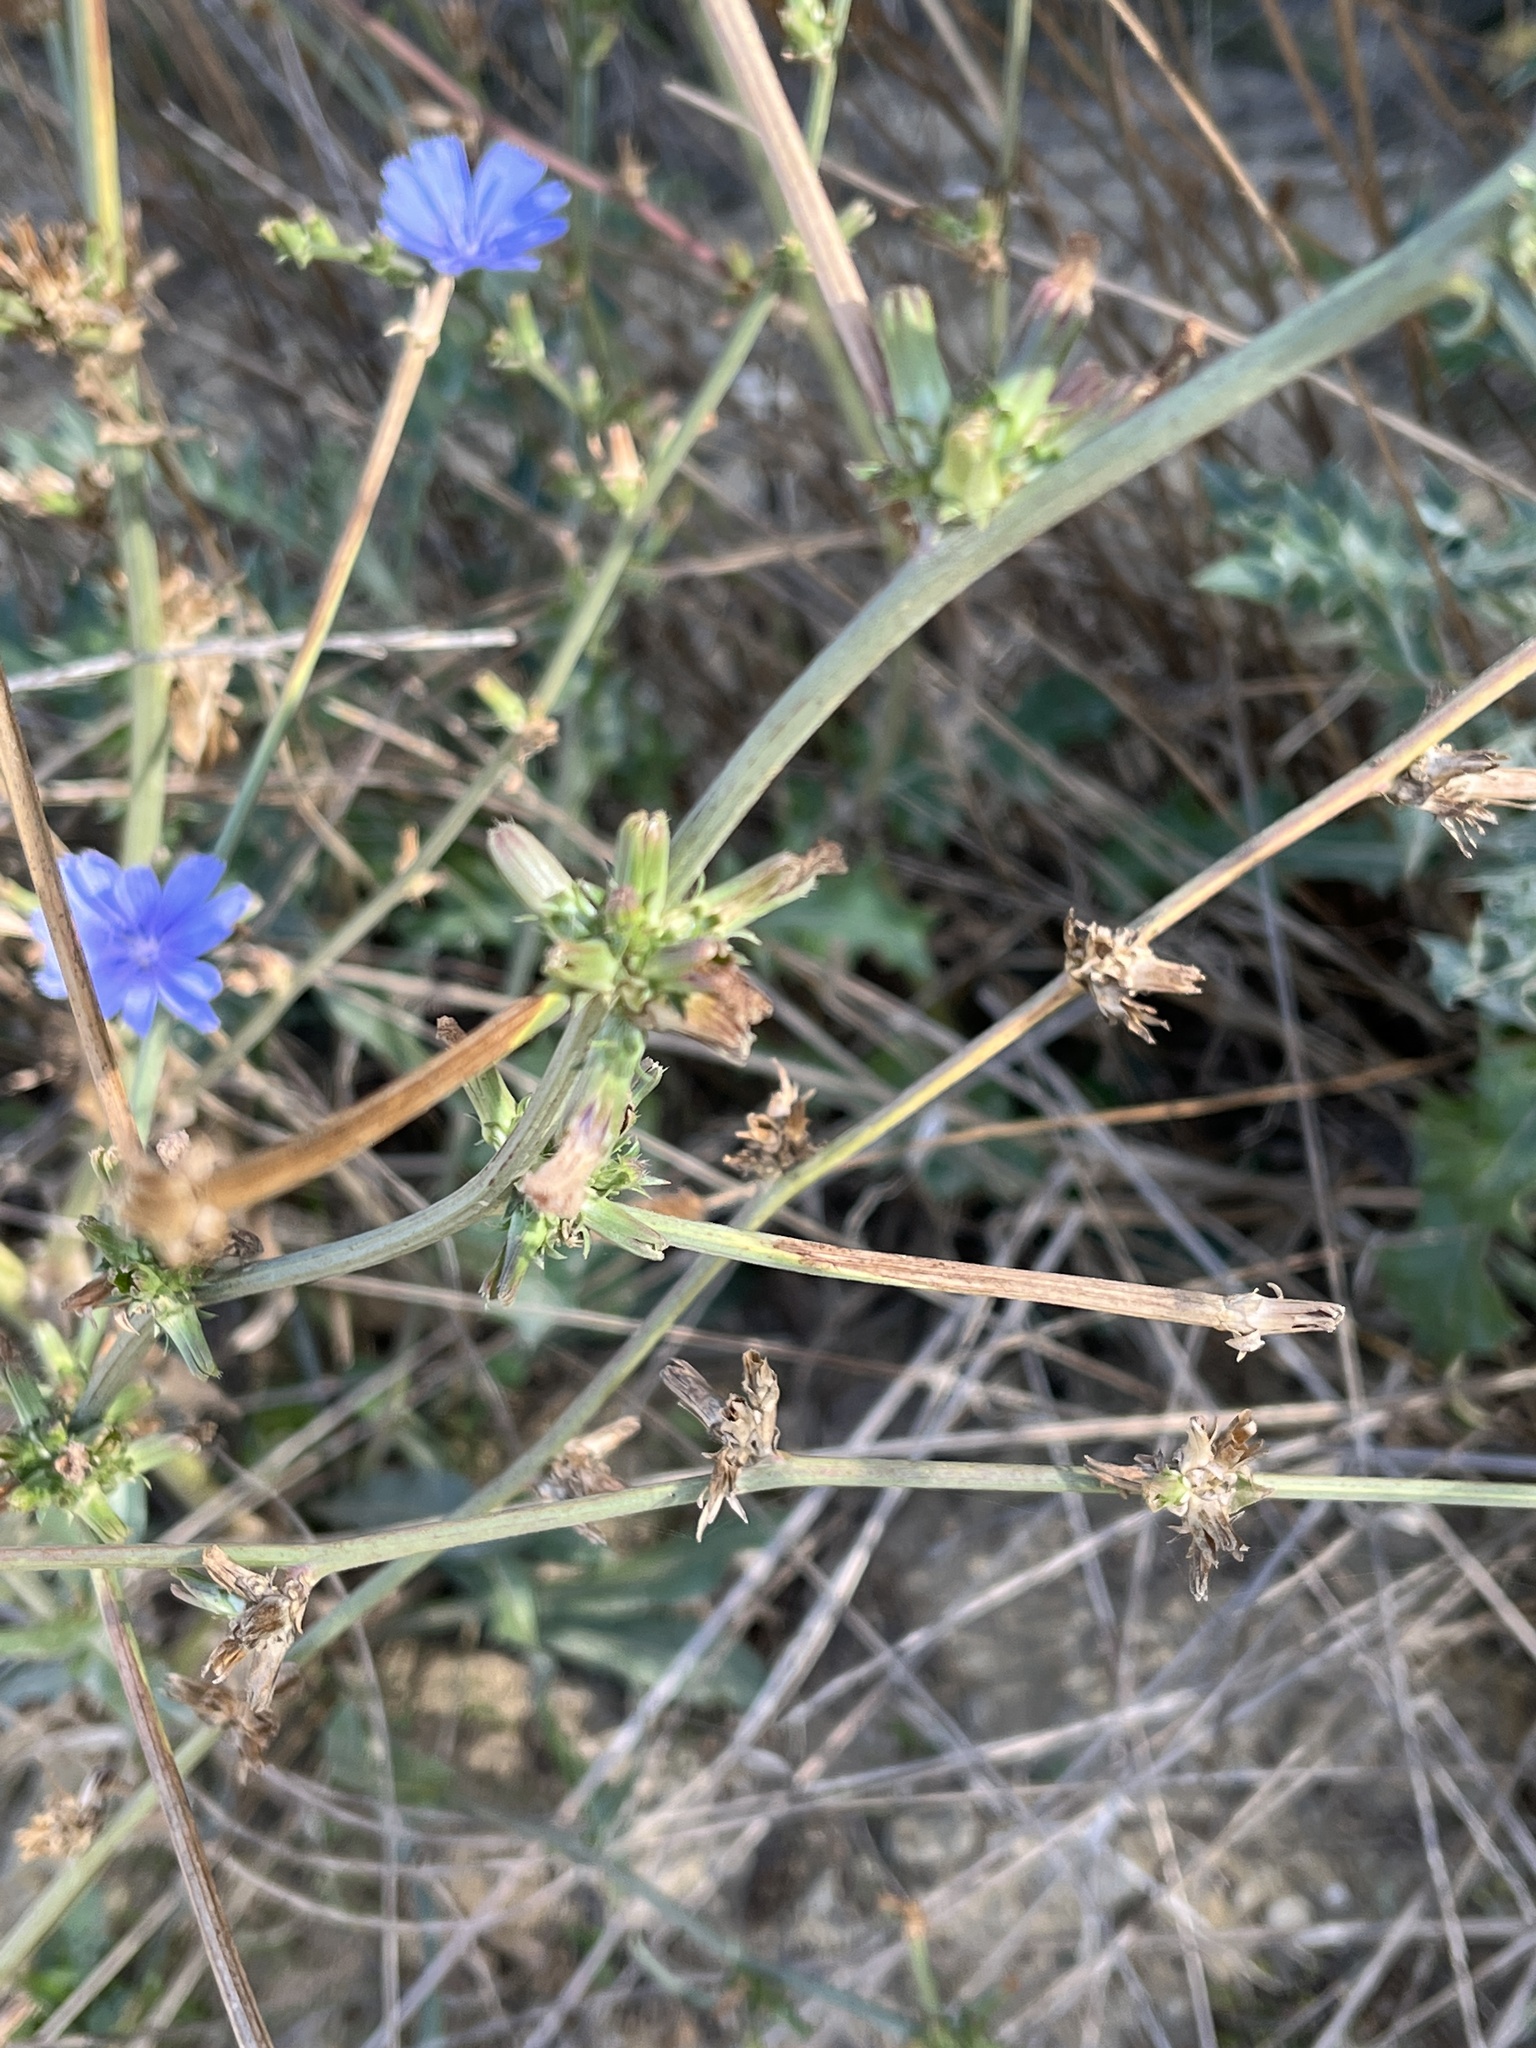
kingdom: Plantae
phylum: Tracheophyta
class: Magnoliopsida
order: Asterales
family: Asteraceae
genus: Cichorium
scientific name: Cichorium intybus
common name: Chicory
